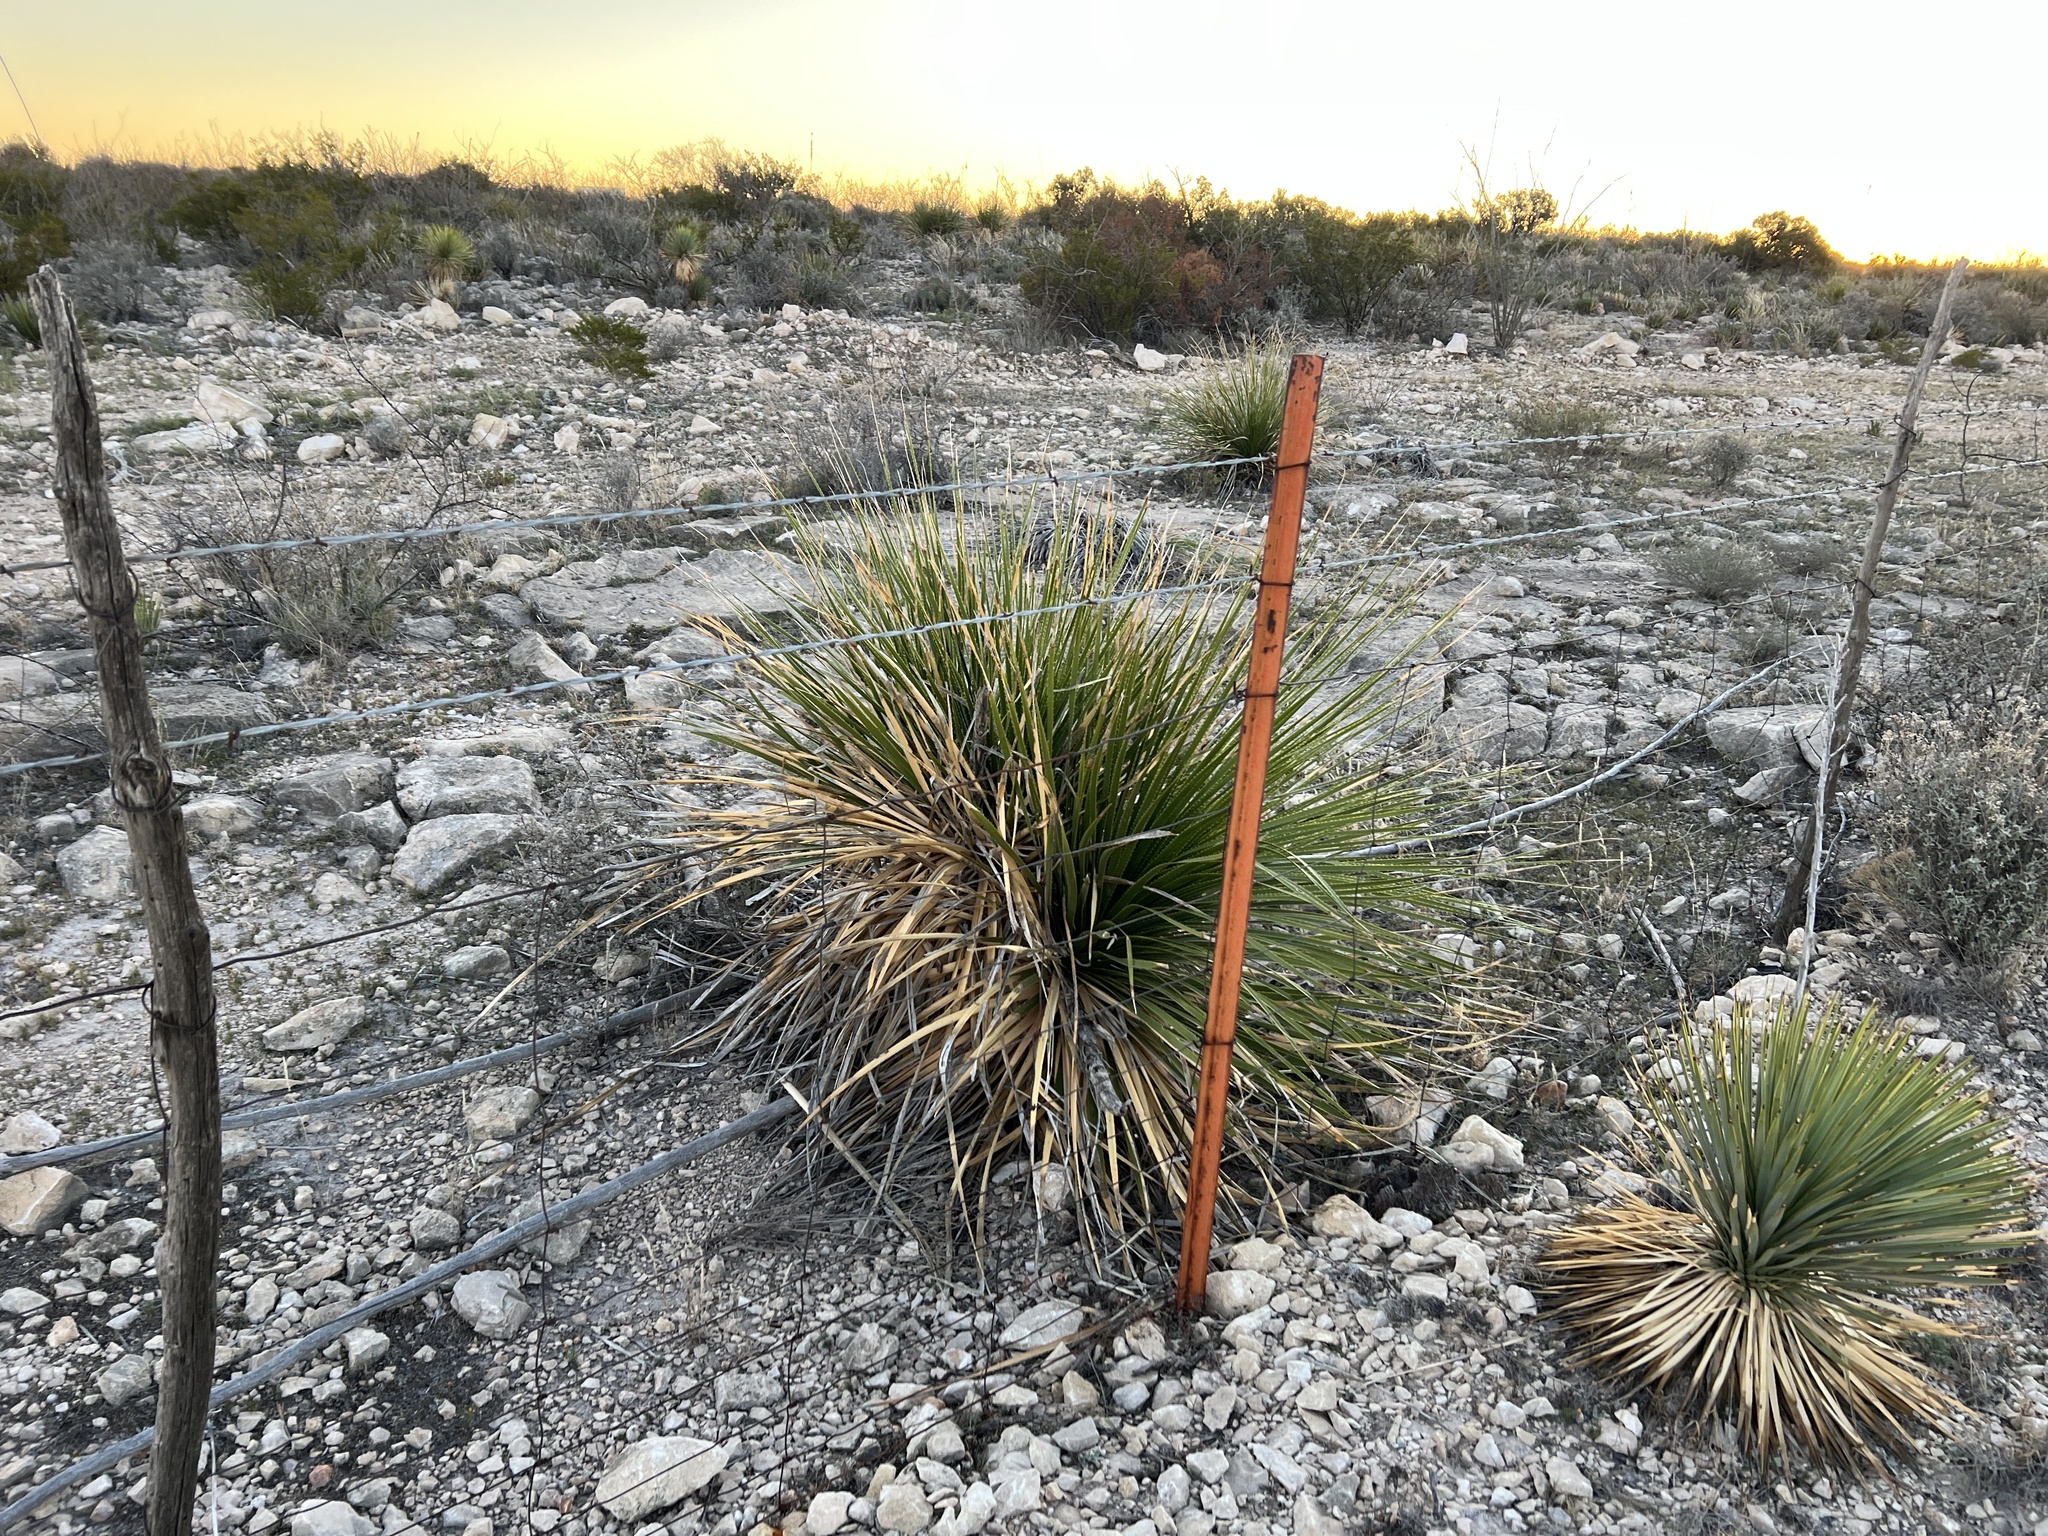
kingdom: Plantae
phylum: Tracheophyta
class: Liliopsida
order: Asparagales
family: Asparagaceae
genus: Dasylirion
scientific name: Dasylirion texanum
